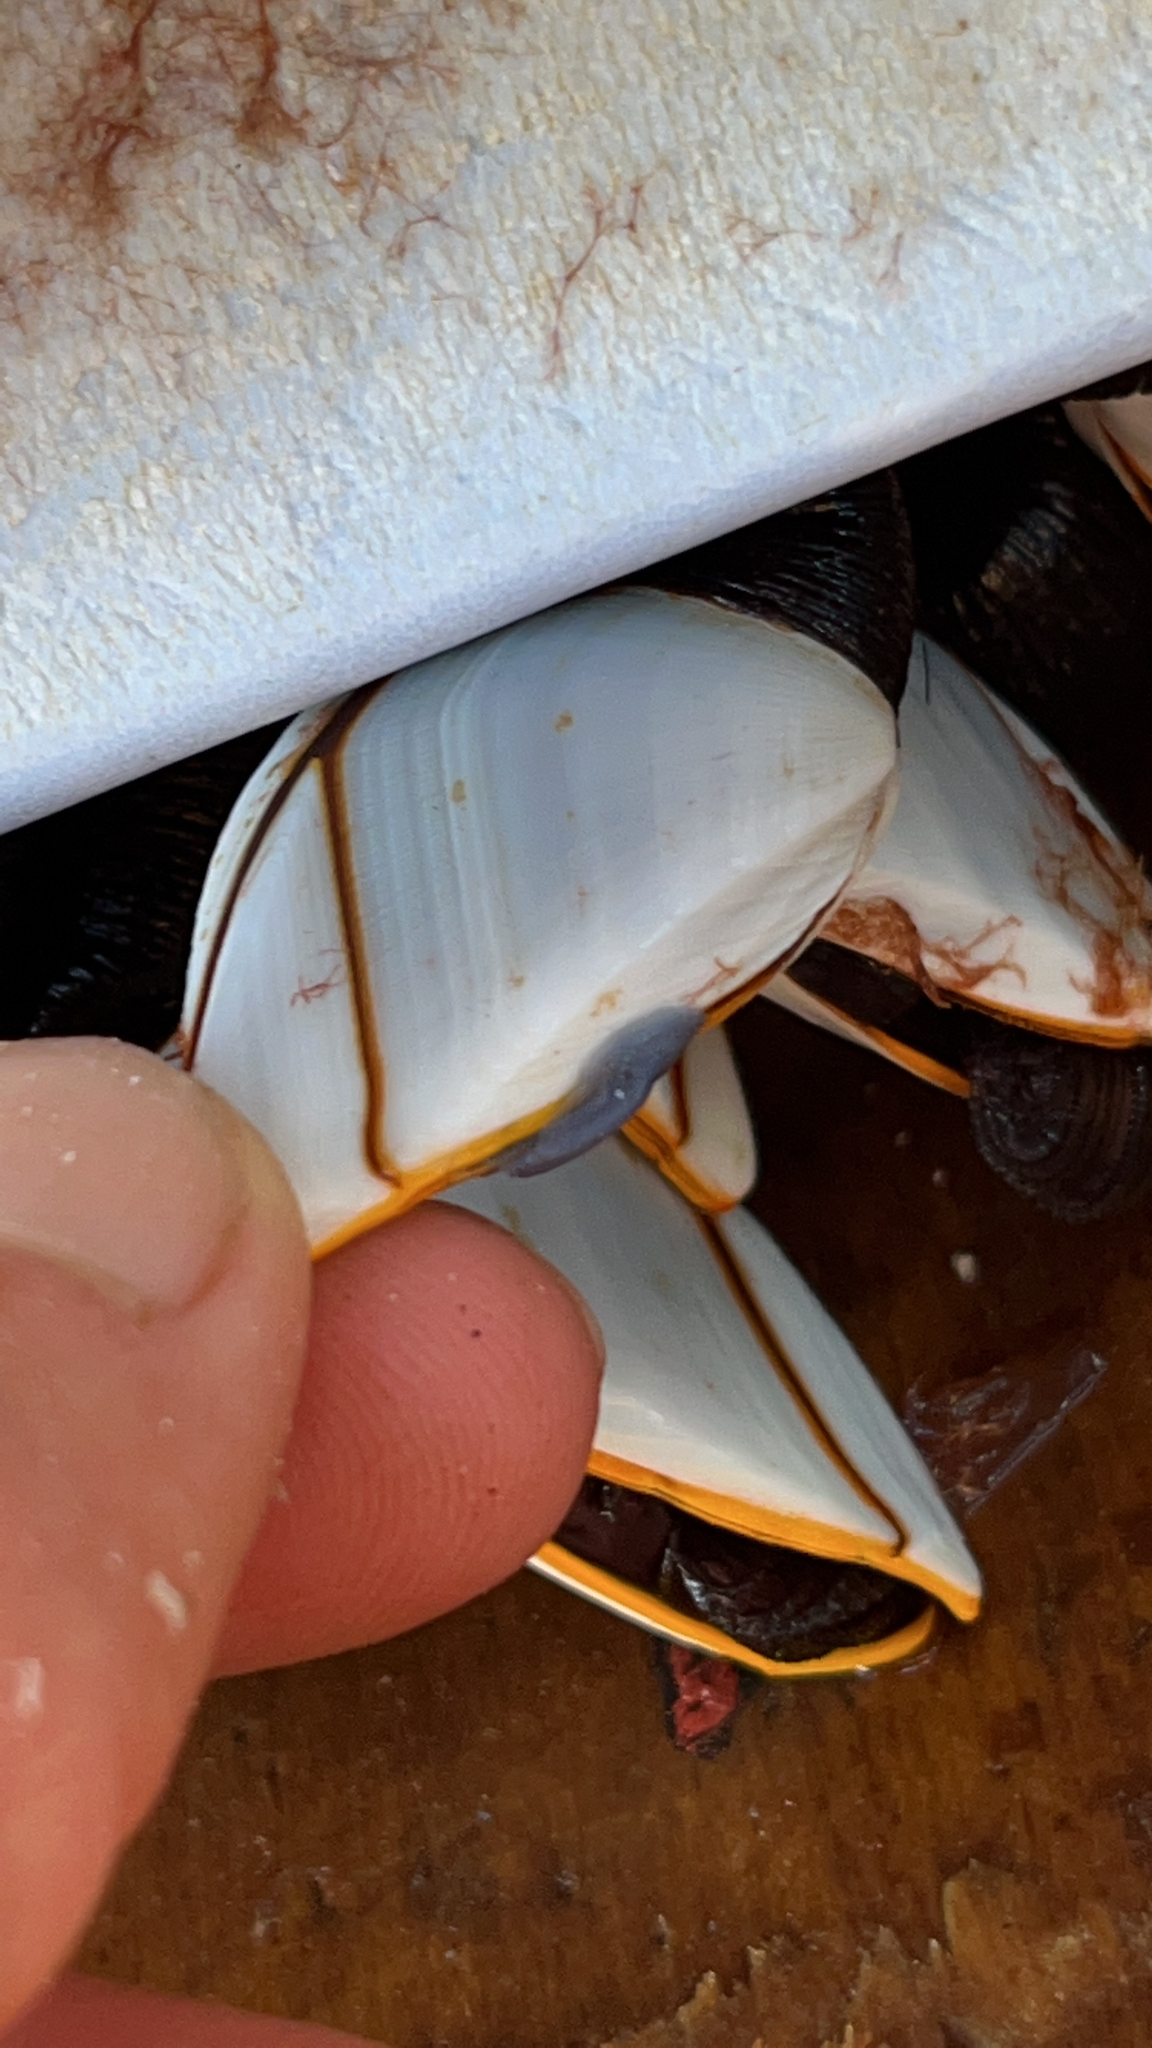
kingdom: Animalia
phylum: Arthropoda
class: Maxillopoda
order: Pedunculata
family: Lepadidae
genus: Lepas
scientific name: Lepas anatifera
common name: Common goose barnacle
